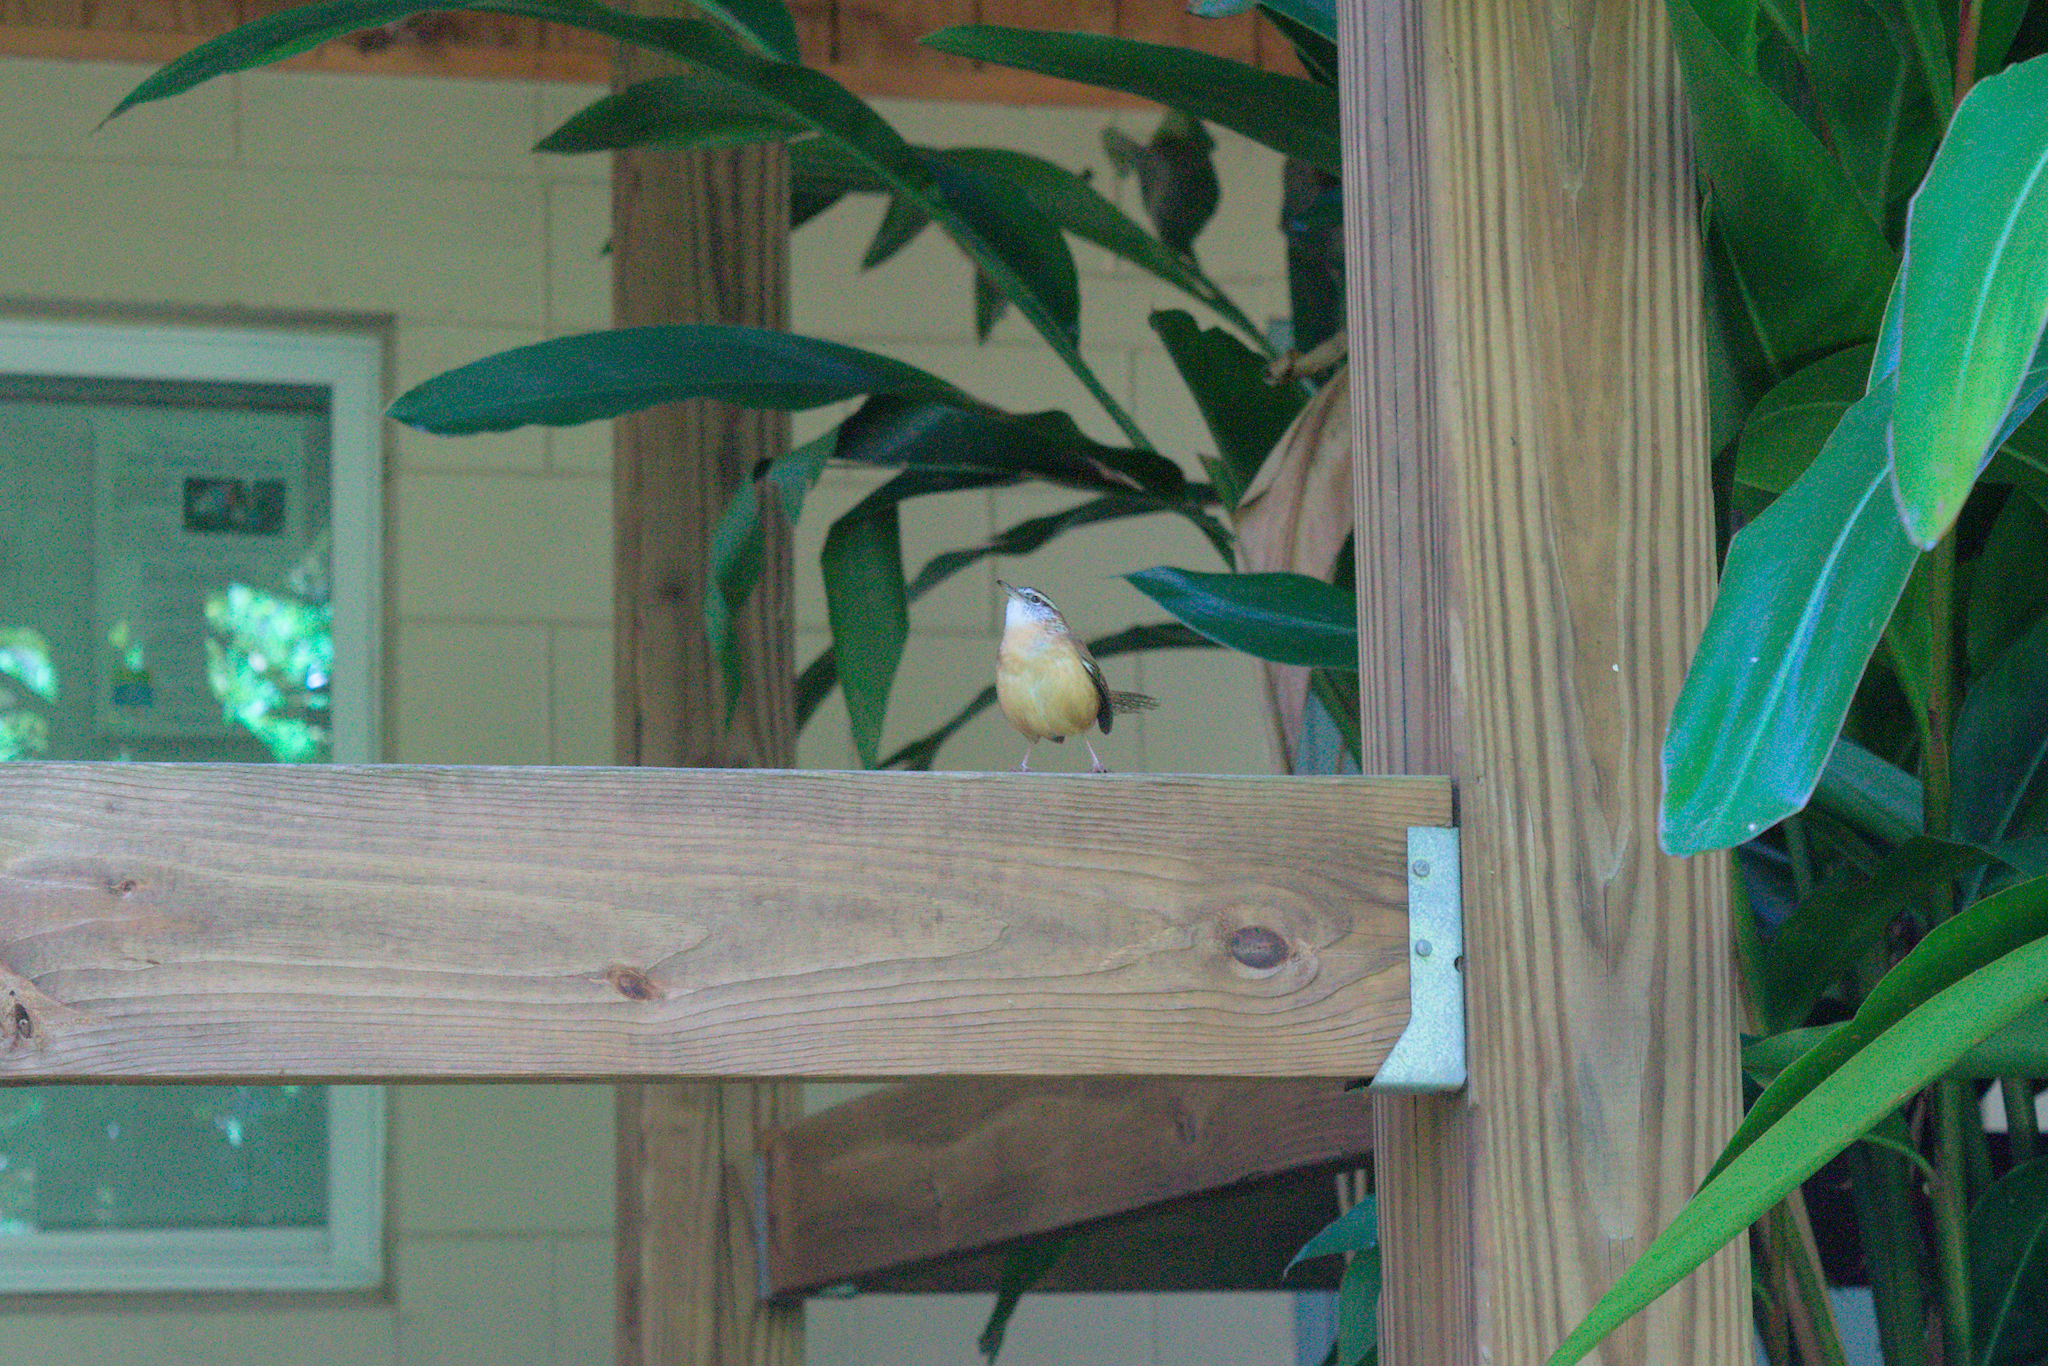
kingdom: Animalia
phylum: Chordata
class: Aves
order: Passeriformes
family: Troglodytidae
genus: Thryothorus
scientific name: Thryothorus ludovicianus
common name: Carolina wren
